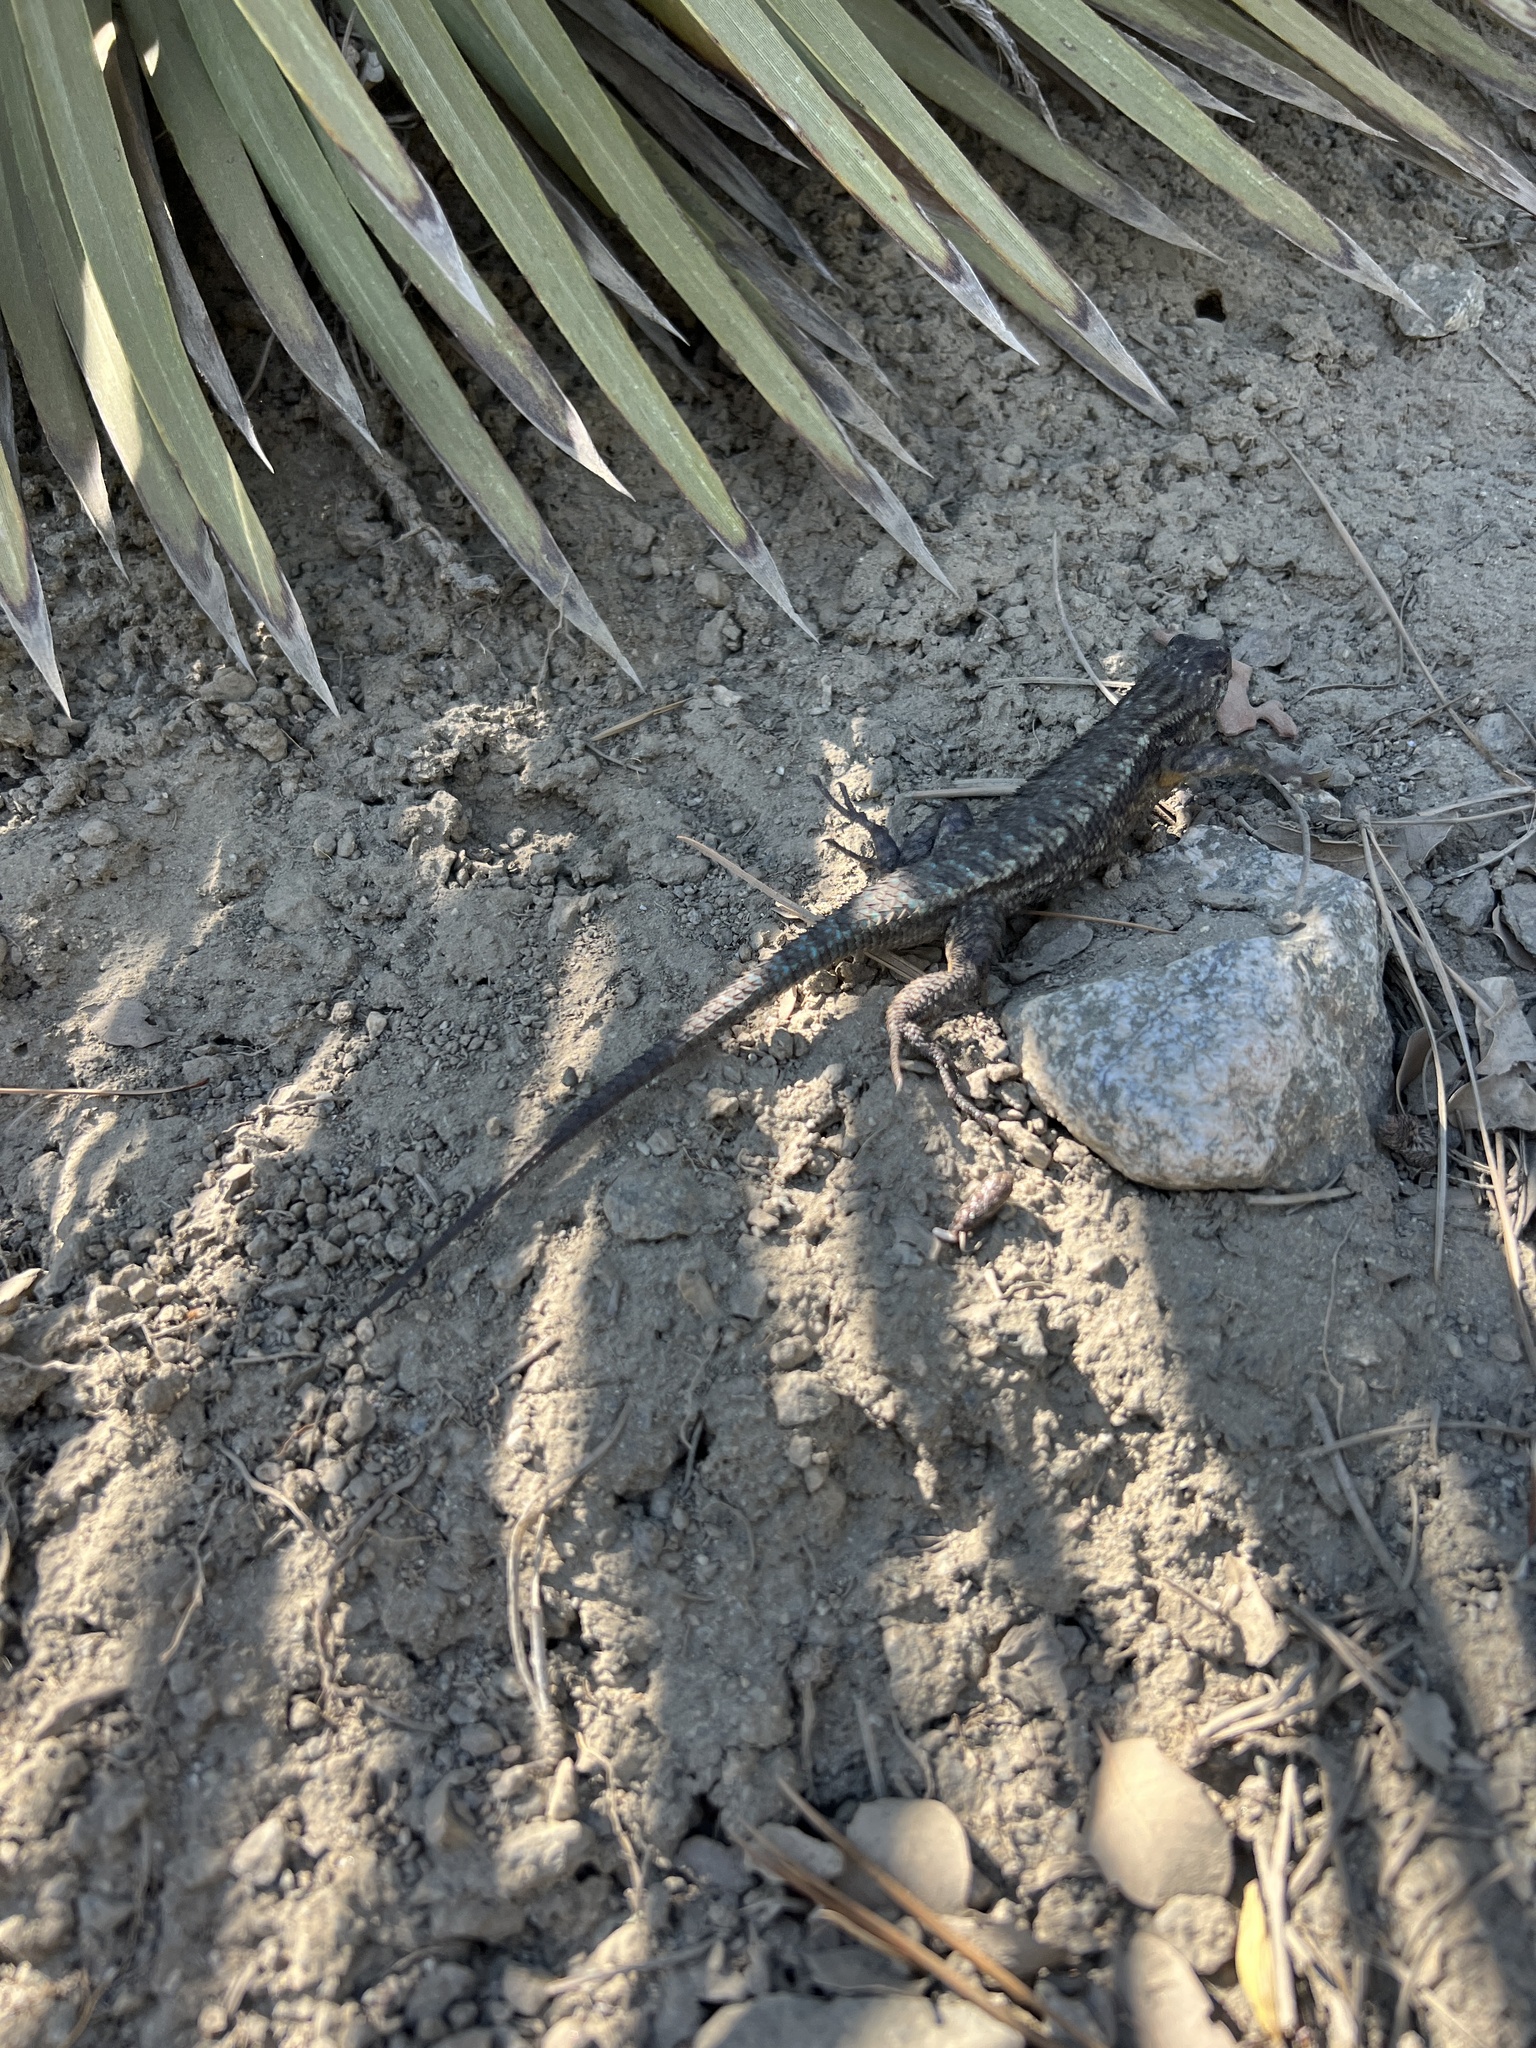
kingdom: Animalia
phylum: Chordata
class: Squamata
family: Phrynosomatidae
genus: Sceloporus
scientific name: Sceloporus occidentalis
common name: Western fence lizard
